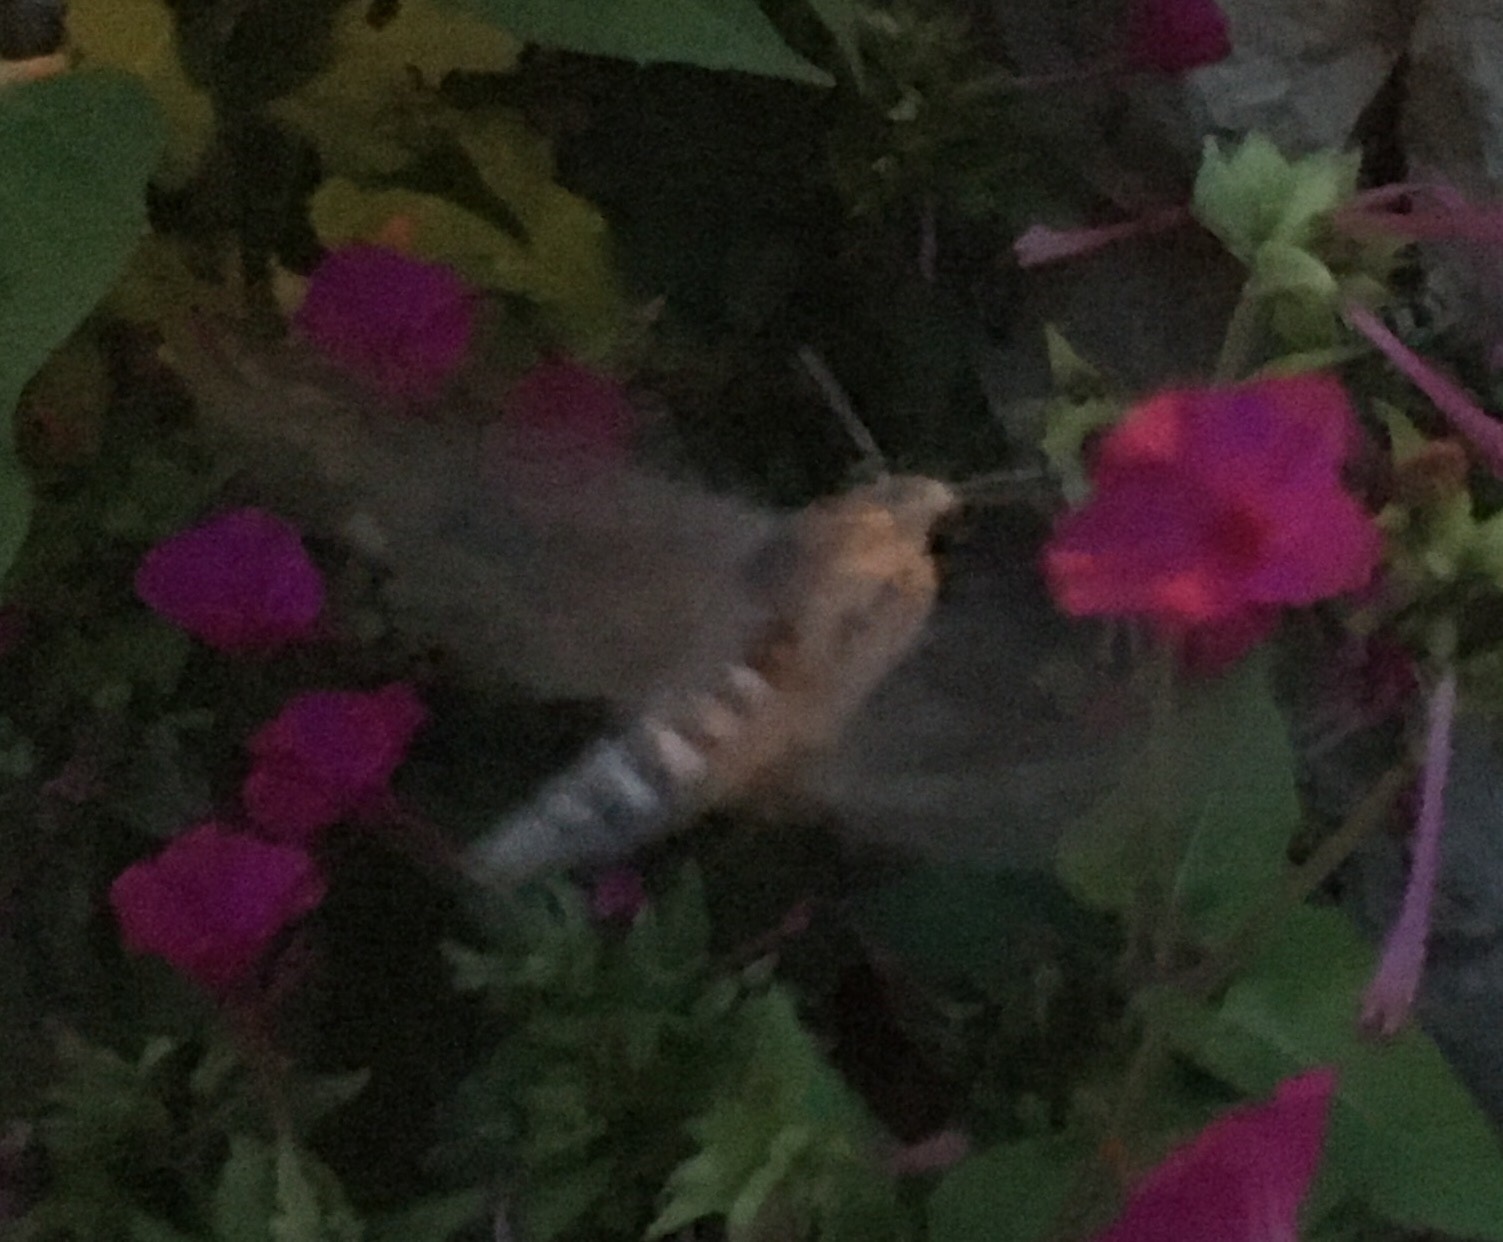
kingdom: Animalia
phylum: Arthropoda
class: Insecta
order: Lepidoptera
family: Sphingidae
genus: Agrius
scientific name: Agrius convolvuli
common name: Convolvulus hawkmoth
